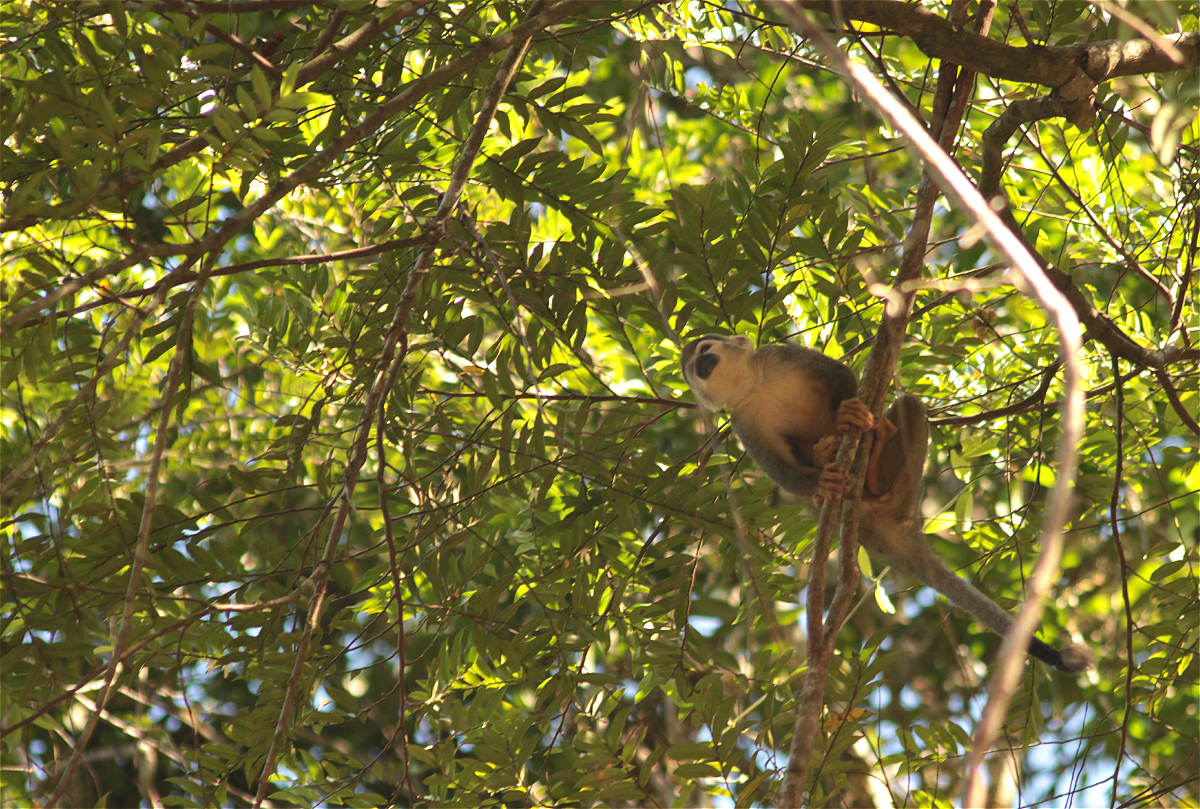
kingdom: Animalia
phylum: Chordata
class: Mammalia
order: Primates
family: Cebidae
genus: Saimiri
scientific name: Saimiri cassiquiarensis
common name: Humboldt’s squirrel monkey
